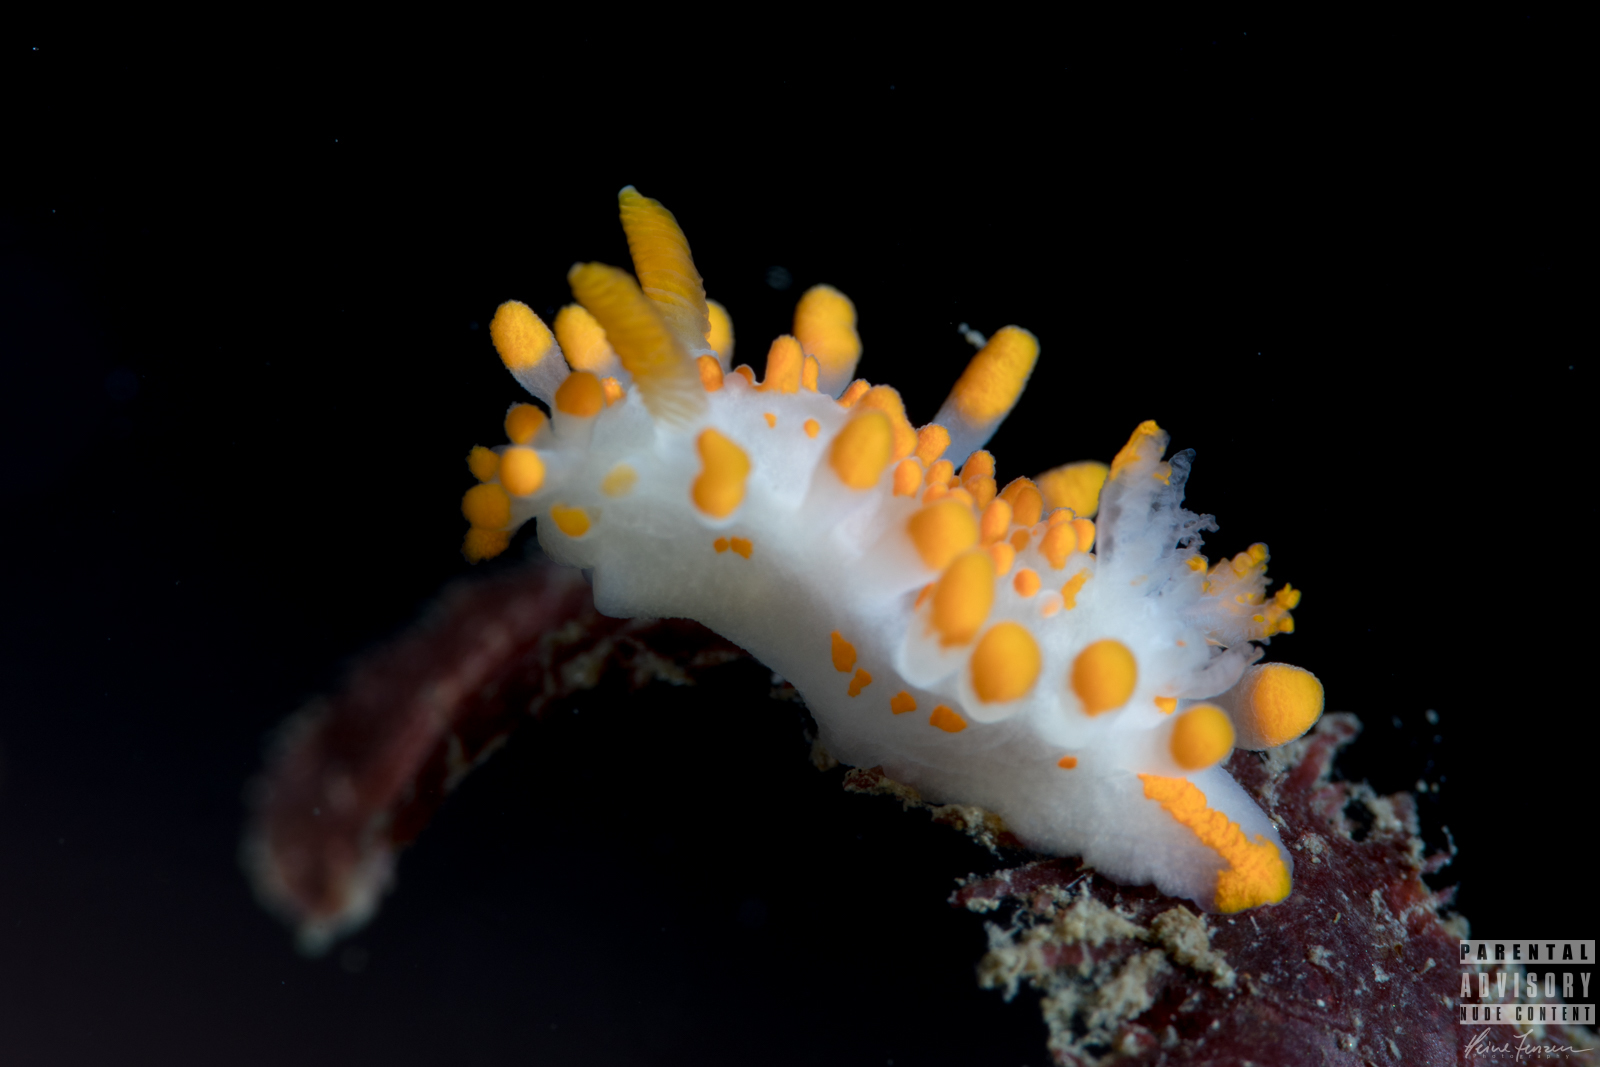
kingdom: Animalia
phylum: Mollusca
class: Gastropoda
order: Nudibranchia
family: Polyceridae
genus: Limacia
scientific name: Limacia clavigera
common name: Orange-clubbed sea slug
